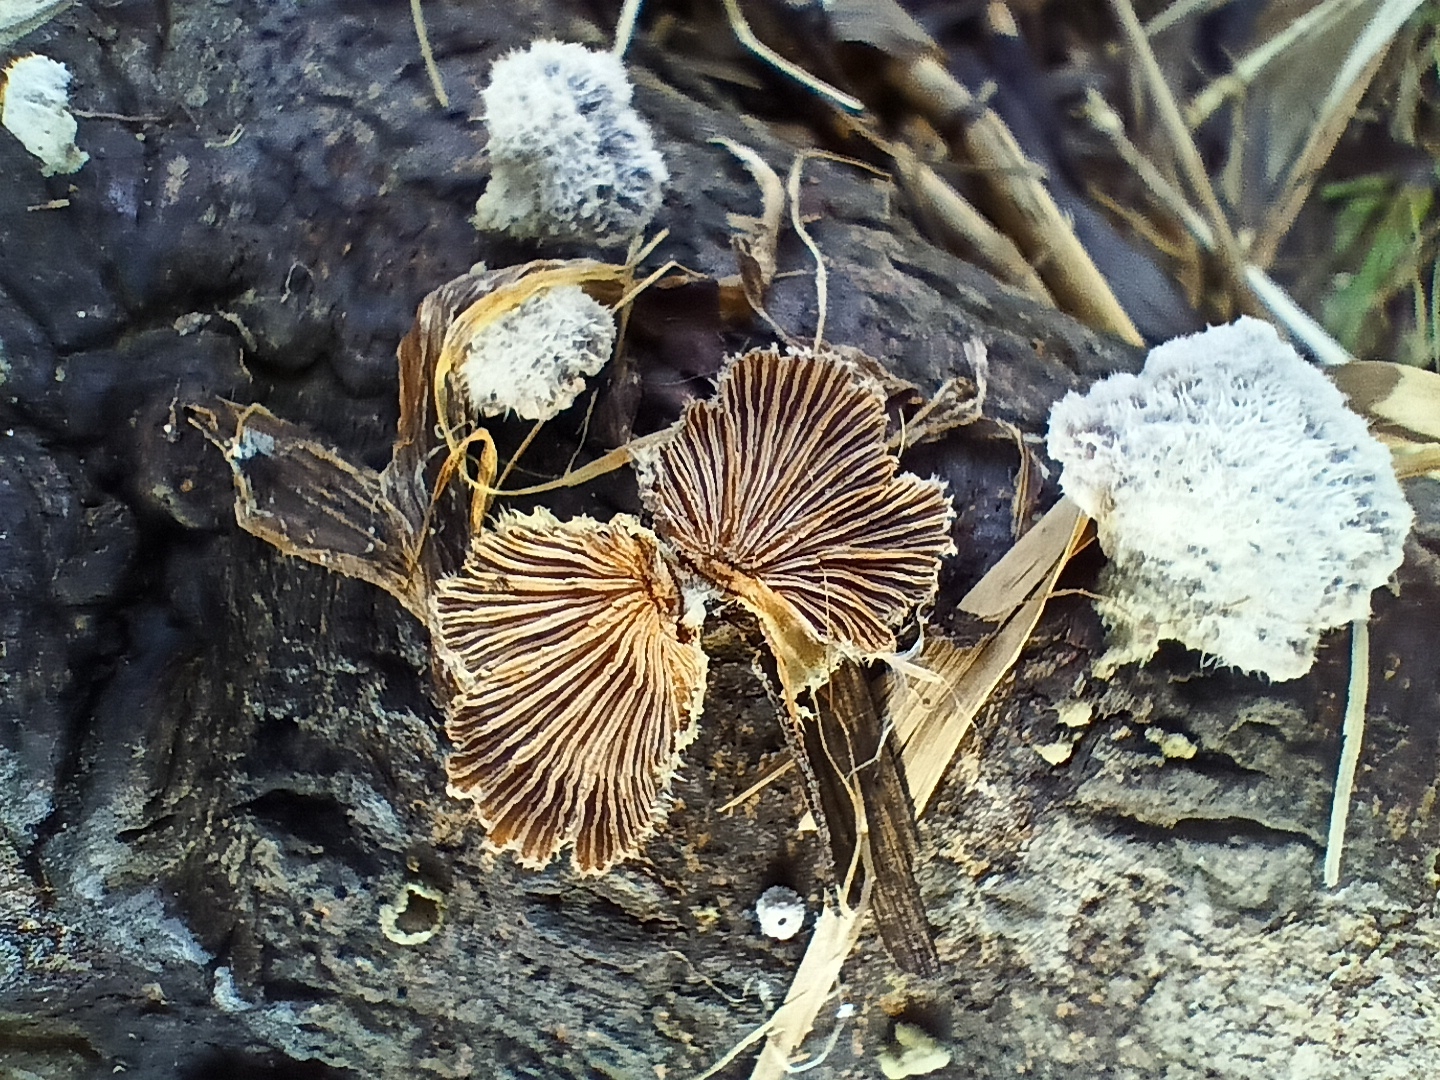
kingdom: Fungi
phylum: Basidiomycota
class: Agaricomycetes
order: Agaricales
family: Schizophyllaceae
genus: Schizophyllum
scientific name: Schizophyllum commune
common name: Common porecrust
